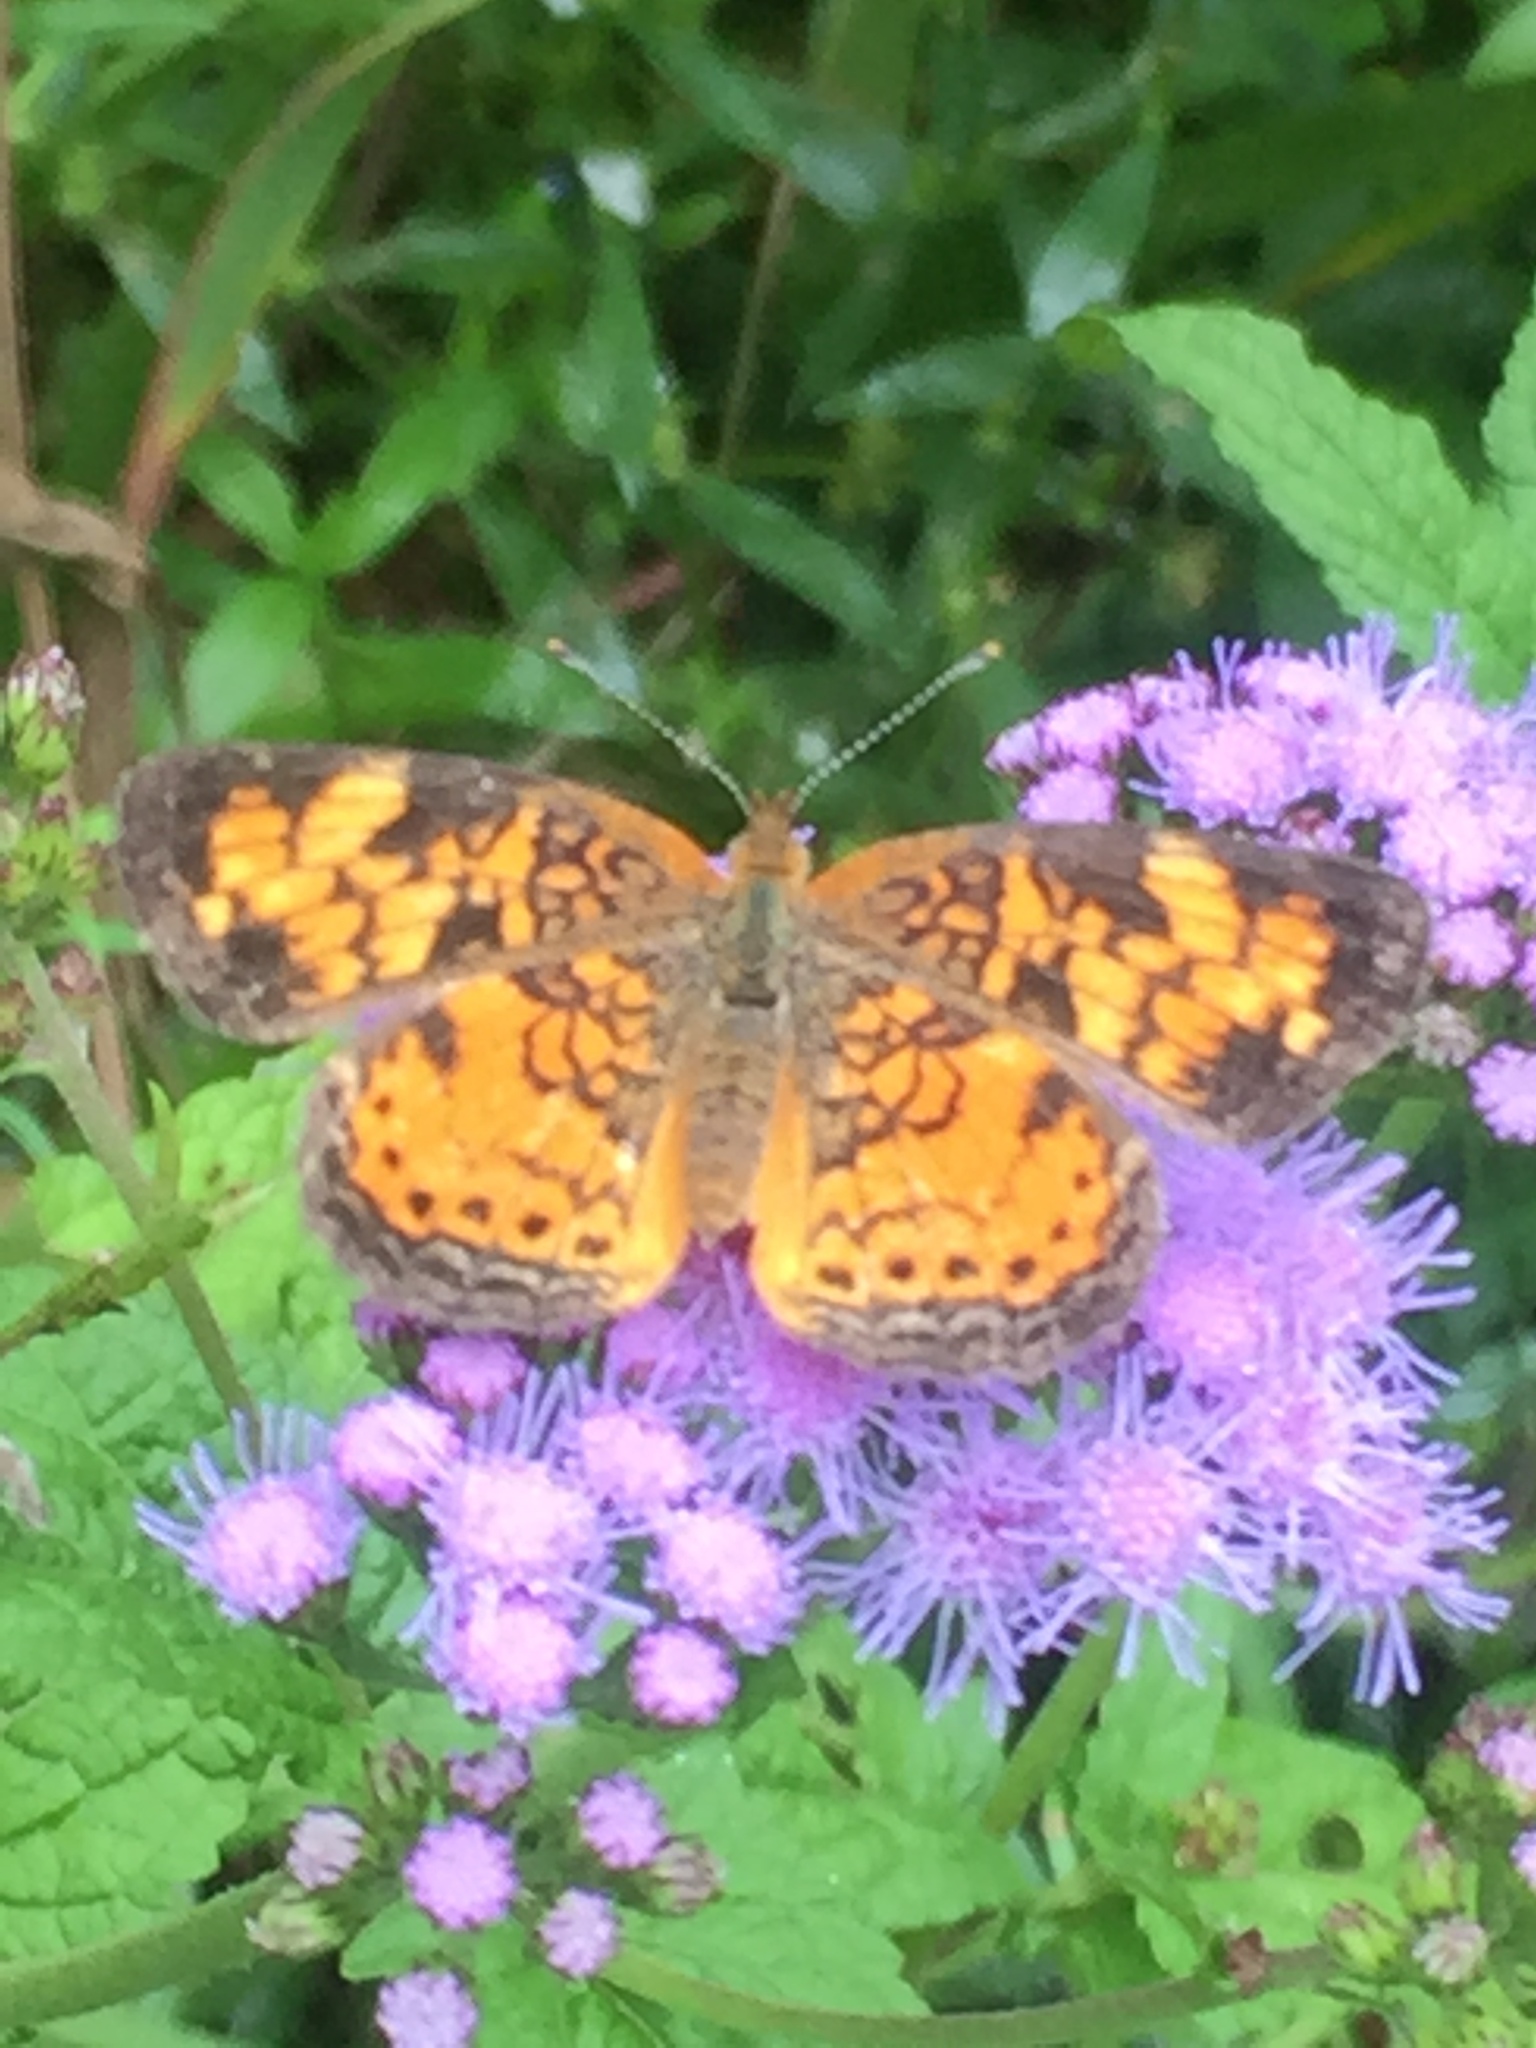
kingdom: Animalia
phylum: Arthropoda
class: Insecta
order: Lepidoptera
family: Nymphalidae
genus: Phyciodes
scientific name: Phyciodes tharos
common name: Pearl crescent
